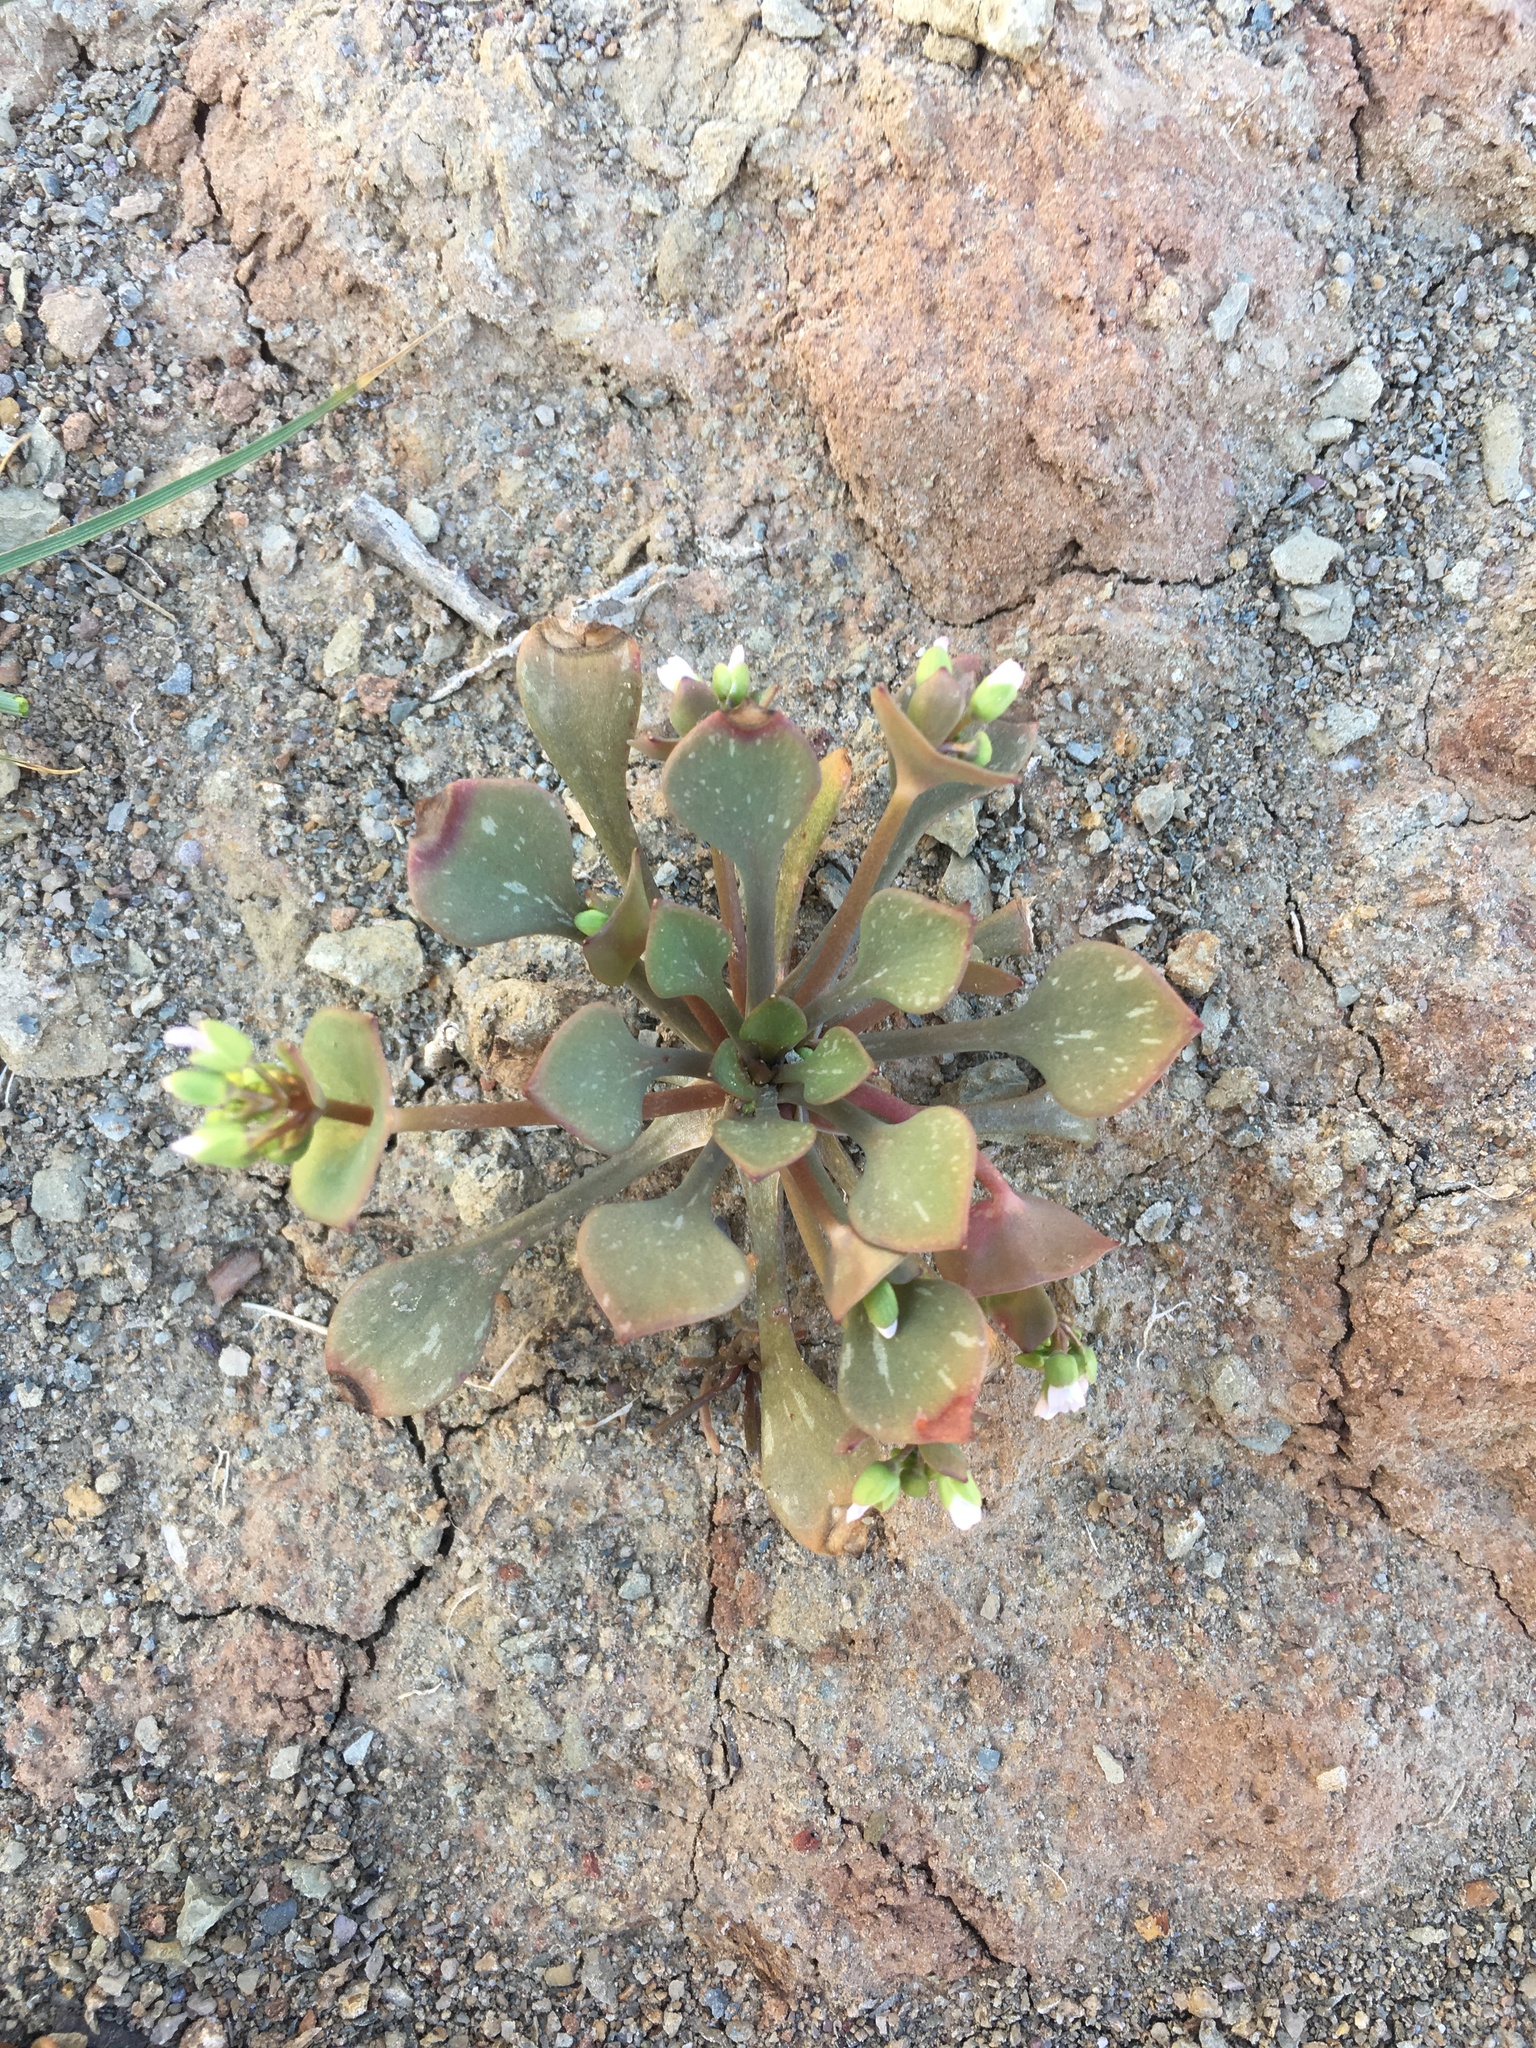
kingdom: Plantae
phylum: Tracheophyta
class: Magnoliopsida
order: Caryophyllales
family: Montiaceae
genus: Claytonia
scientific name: Claytonia rubra
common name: Erubescent miner's-lettuce
